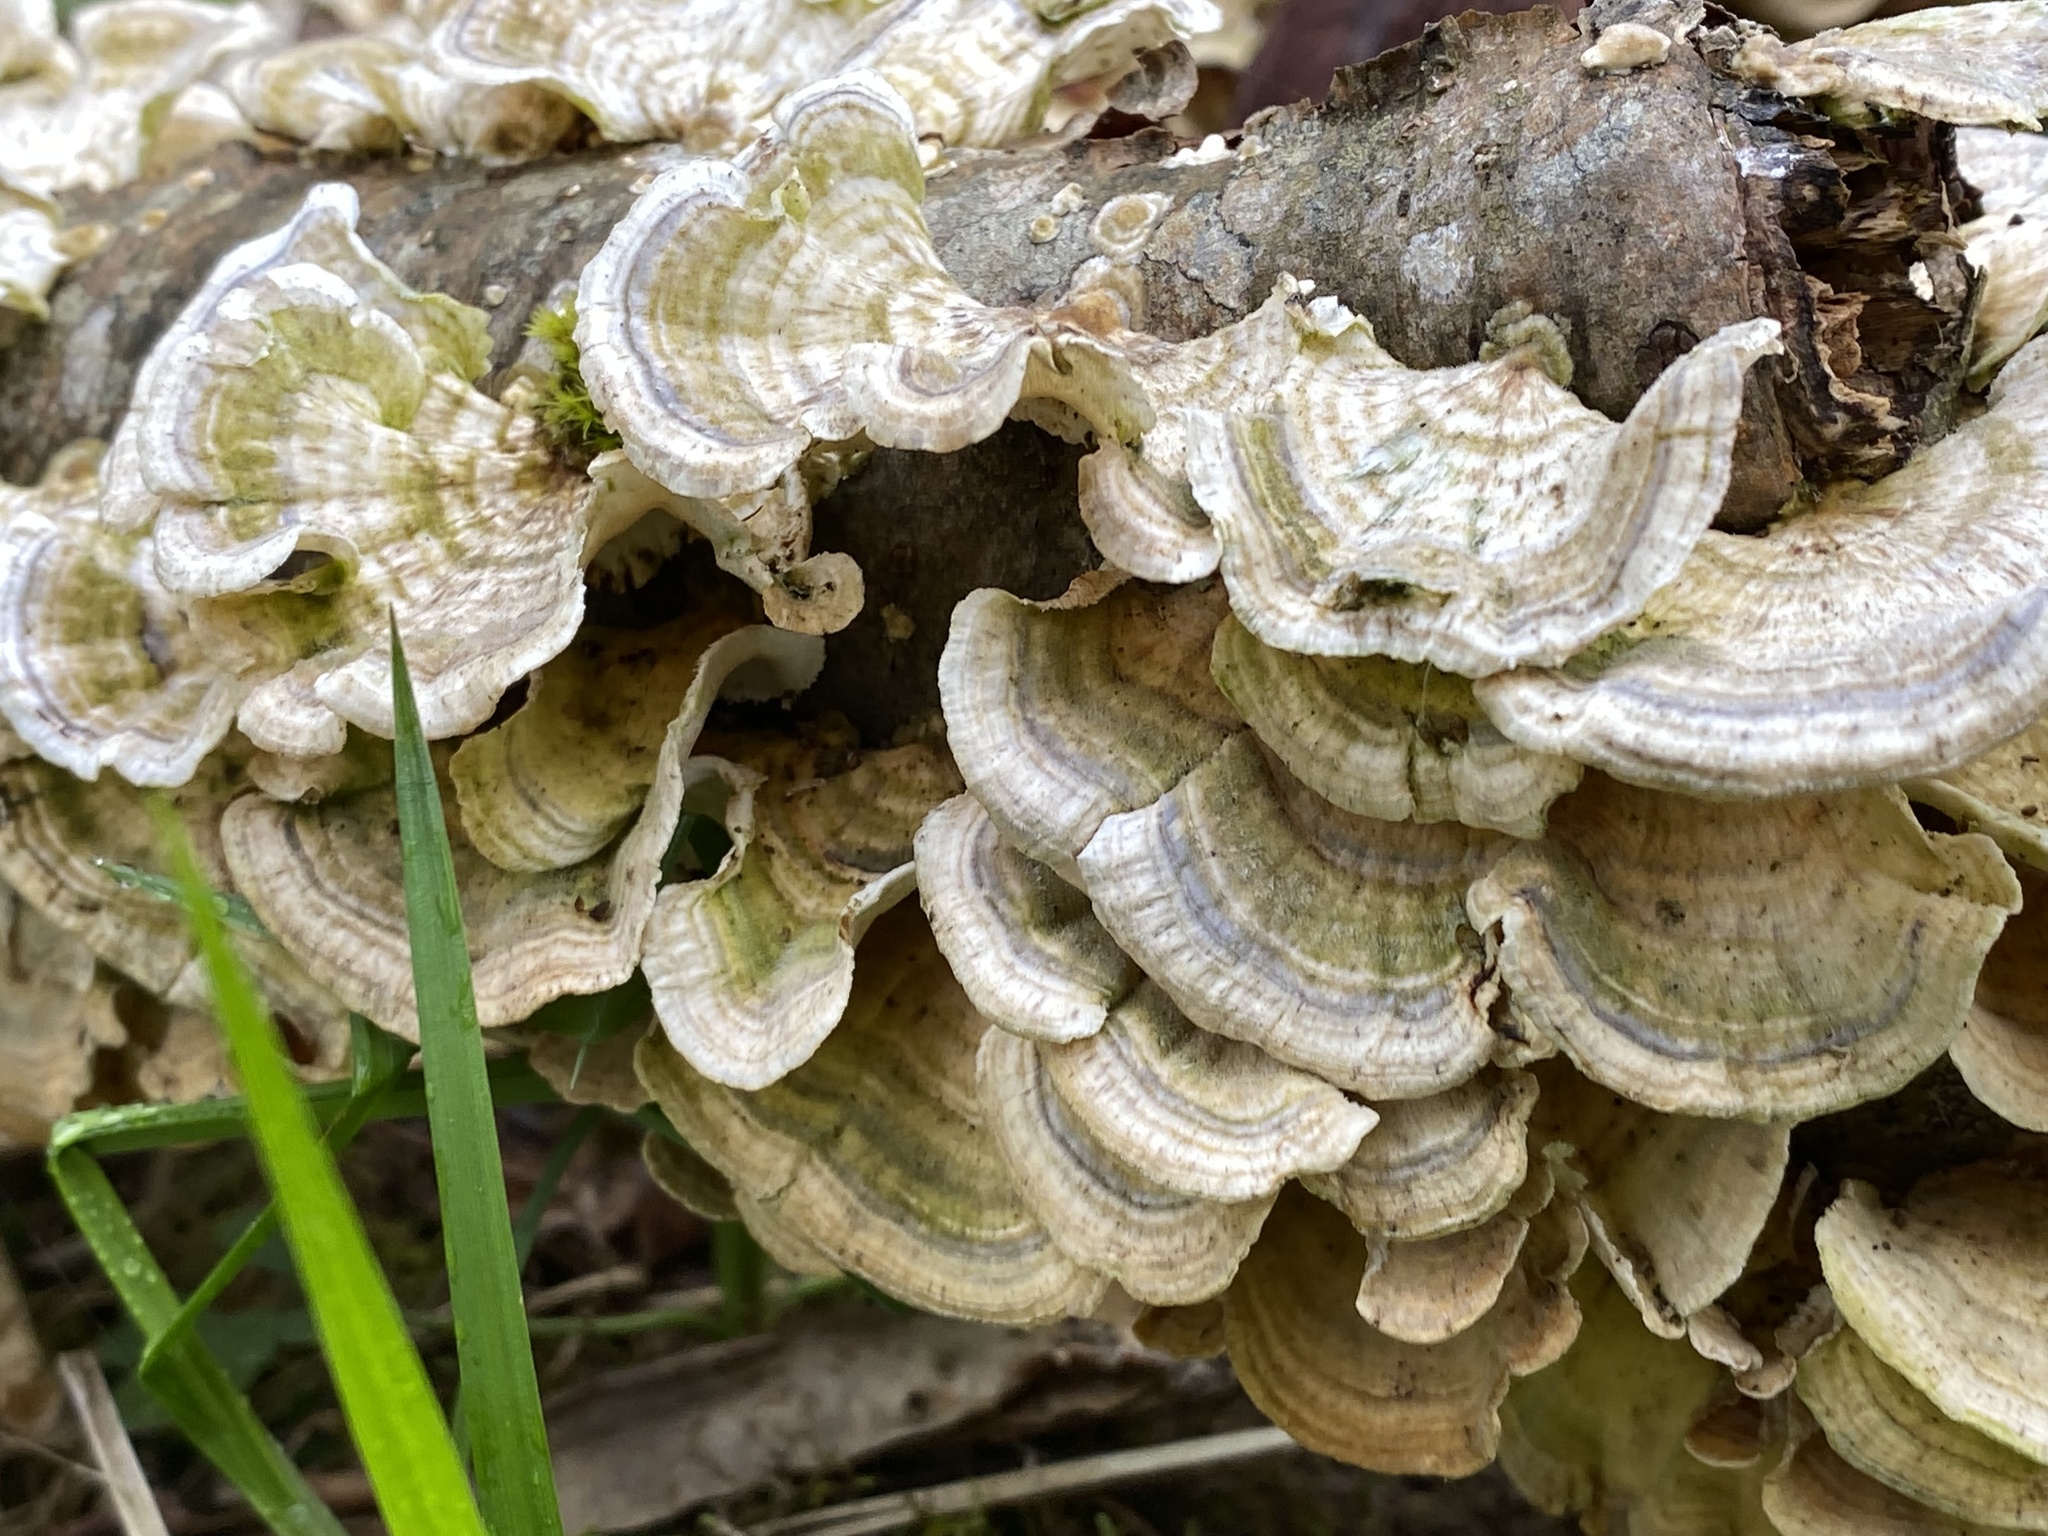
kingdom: Fungi
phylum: Basidiomycota
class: Agaricomycetes
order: Polyporales
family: Polyporaceae
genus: Trametes
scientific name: Trametes versicolor
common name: Turkeytail
